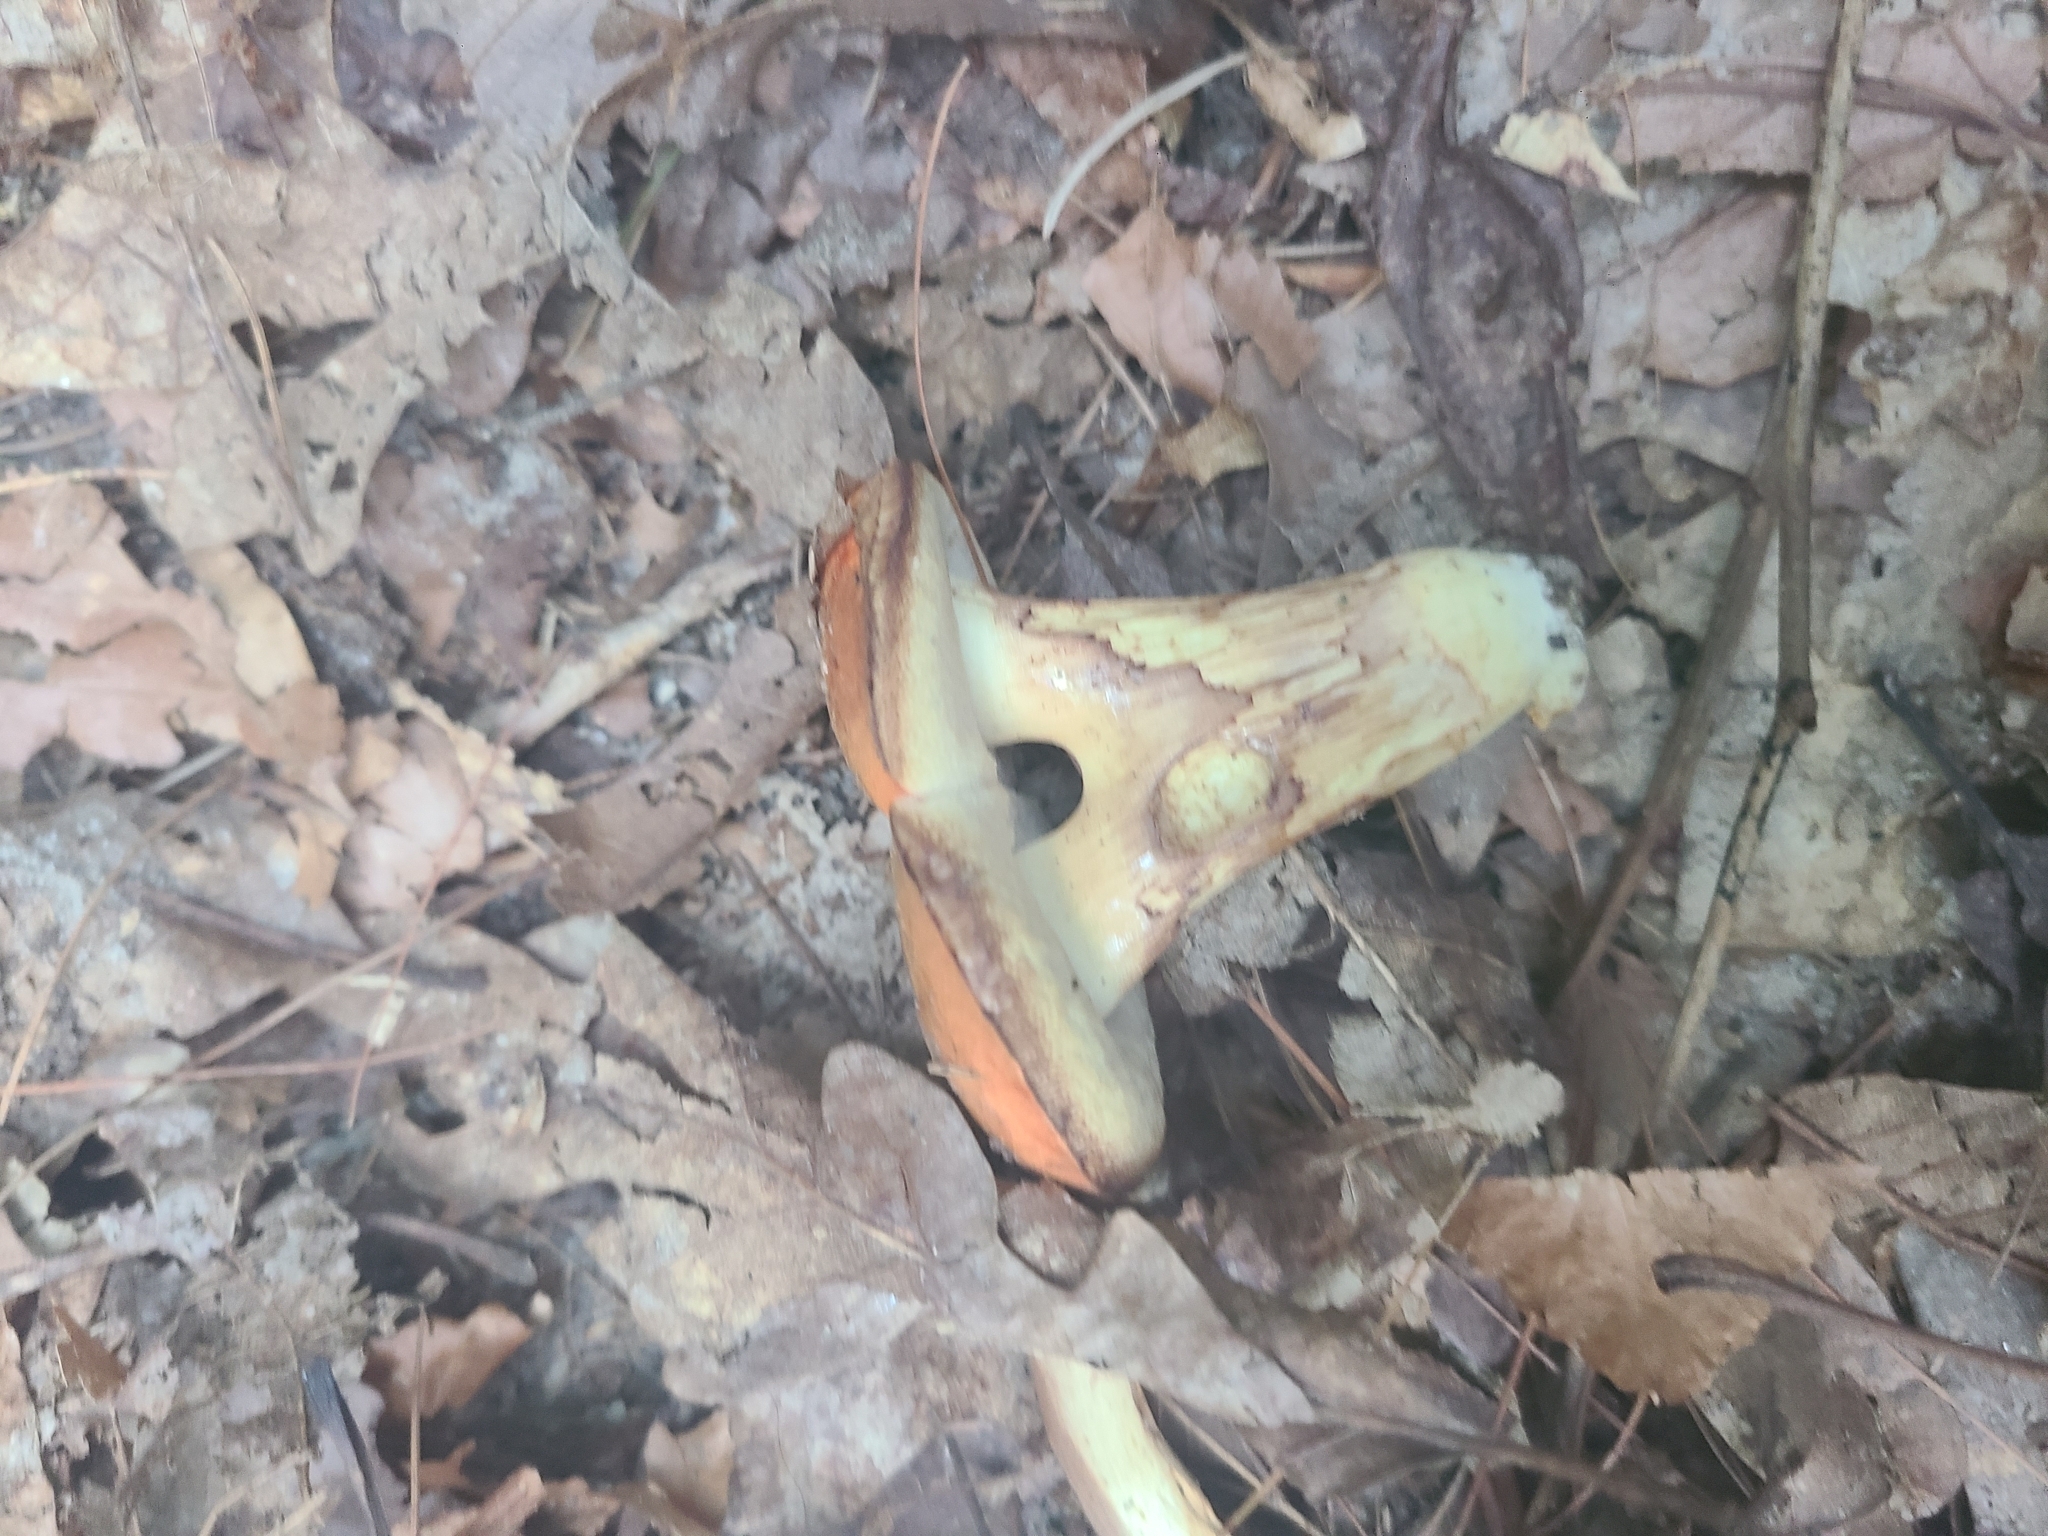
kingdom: Fungi
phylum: Basidiomycota
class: Agaricomycetes
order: Boletales
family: Boletaceae
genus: Tylopilus
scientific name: Tylopilus balloui
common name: Burnt-orange bolete
